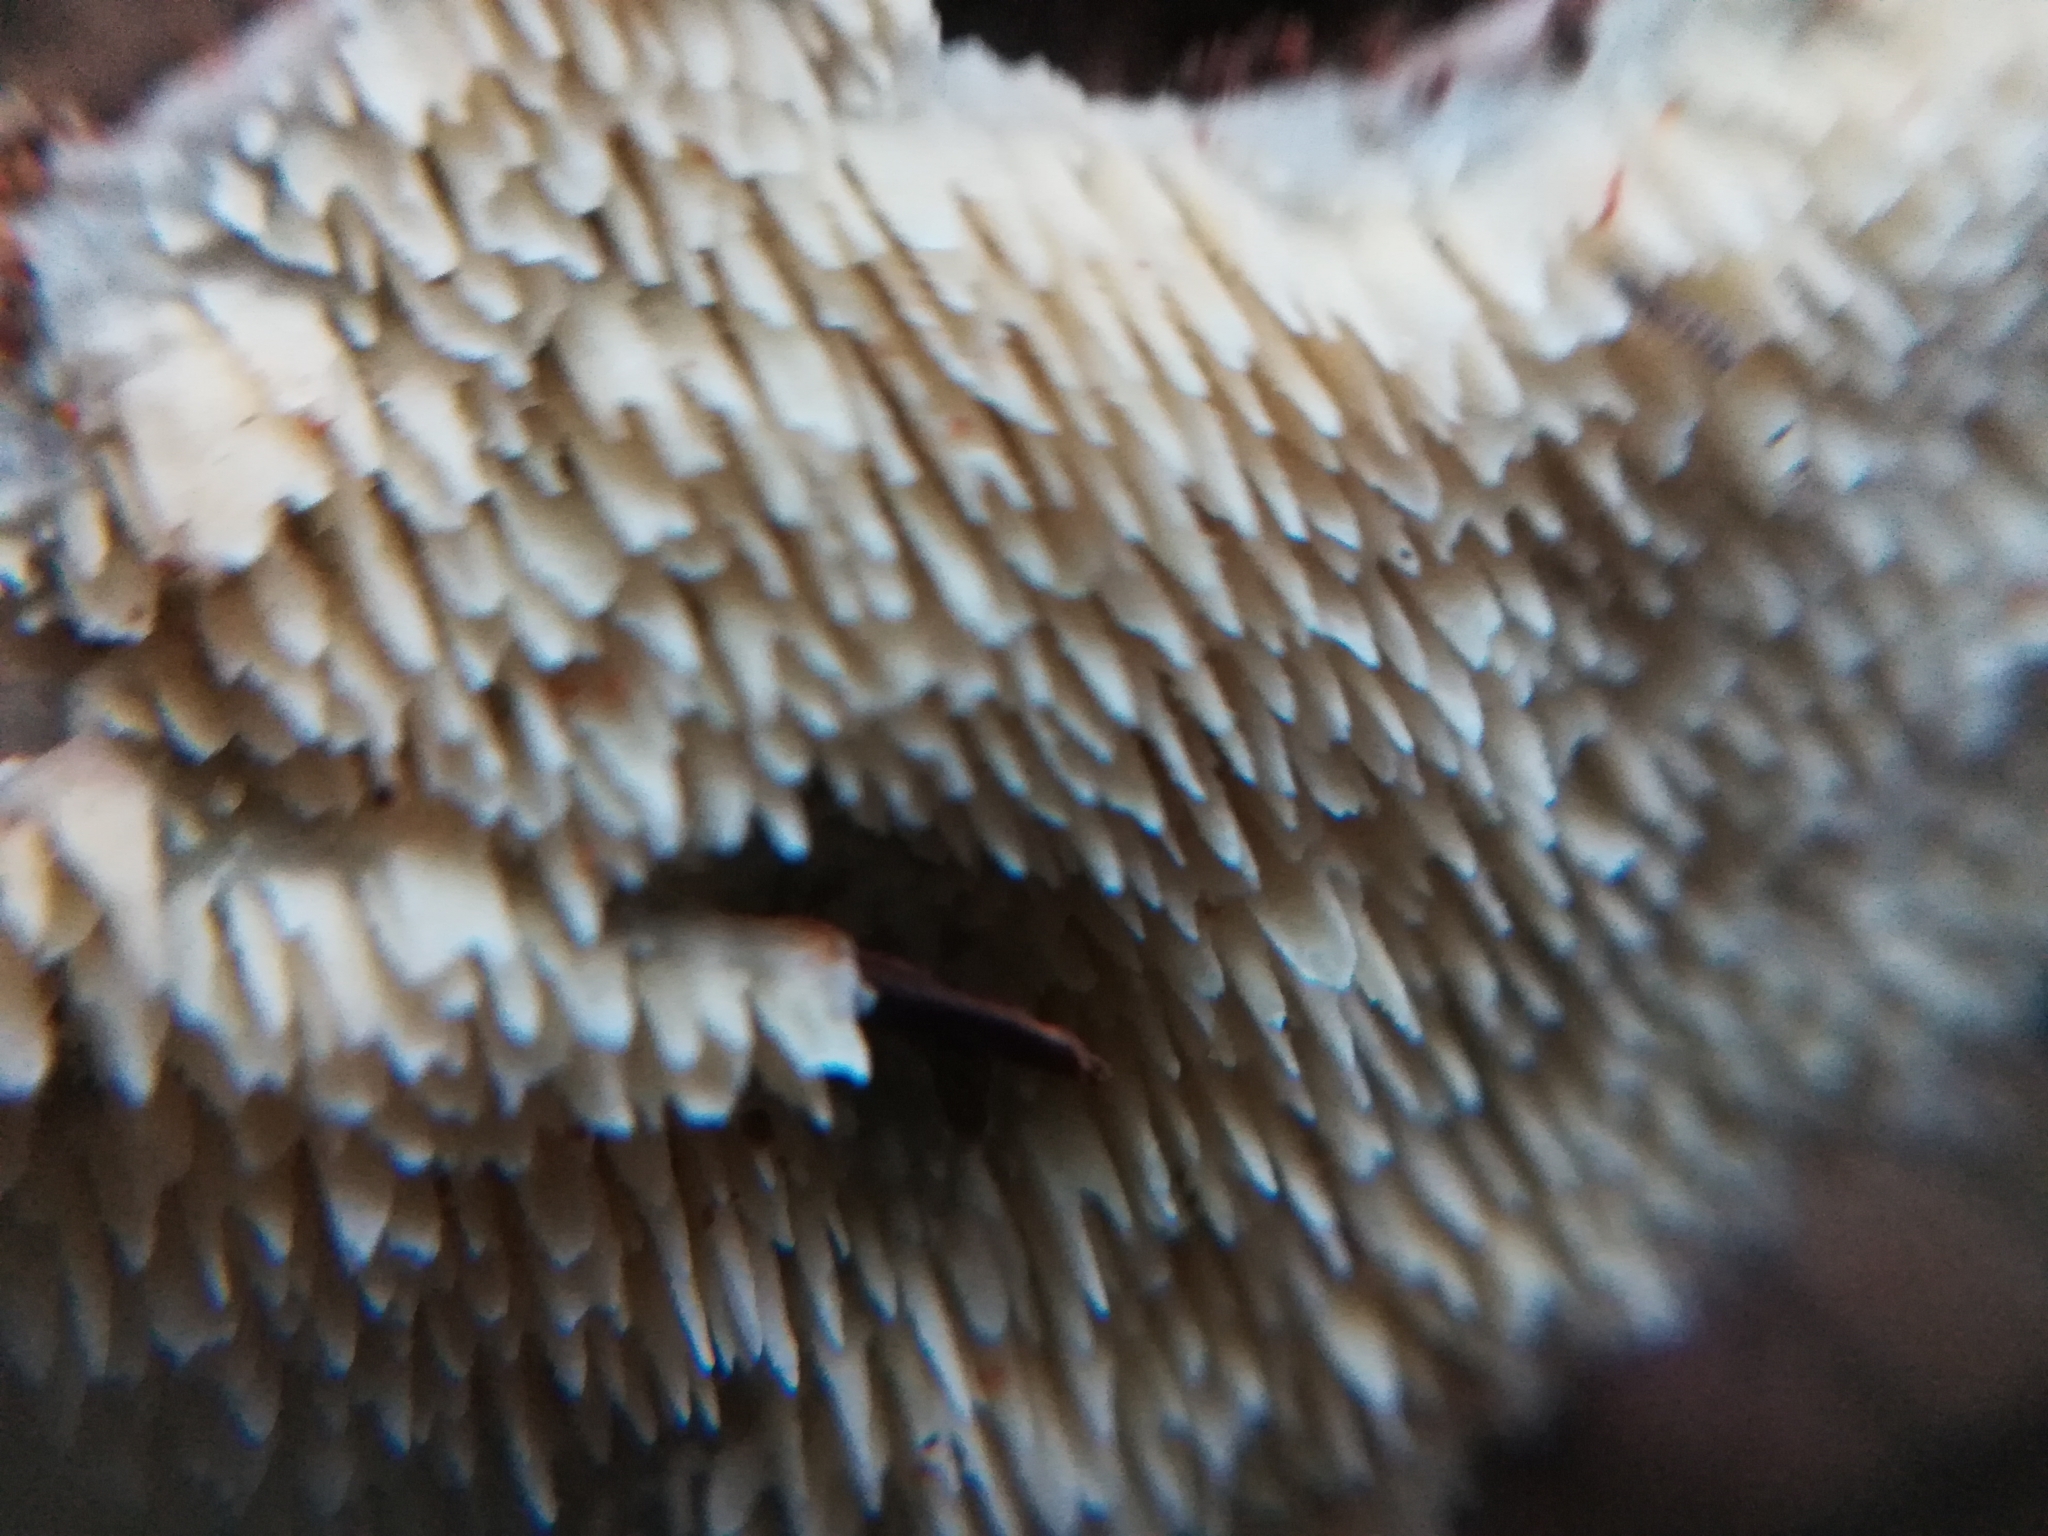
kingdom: Fungi
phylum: Basidiomycota
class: Agaricomycetes
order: Polyporales
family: Cerrenaceae
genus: Cerrena
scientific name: Cerrena zonata
